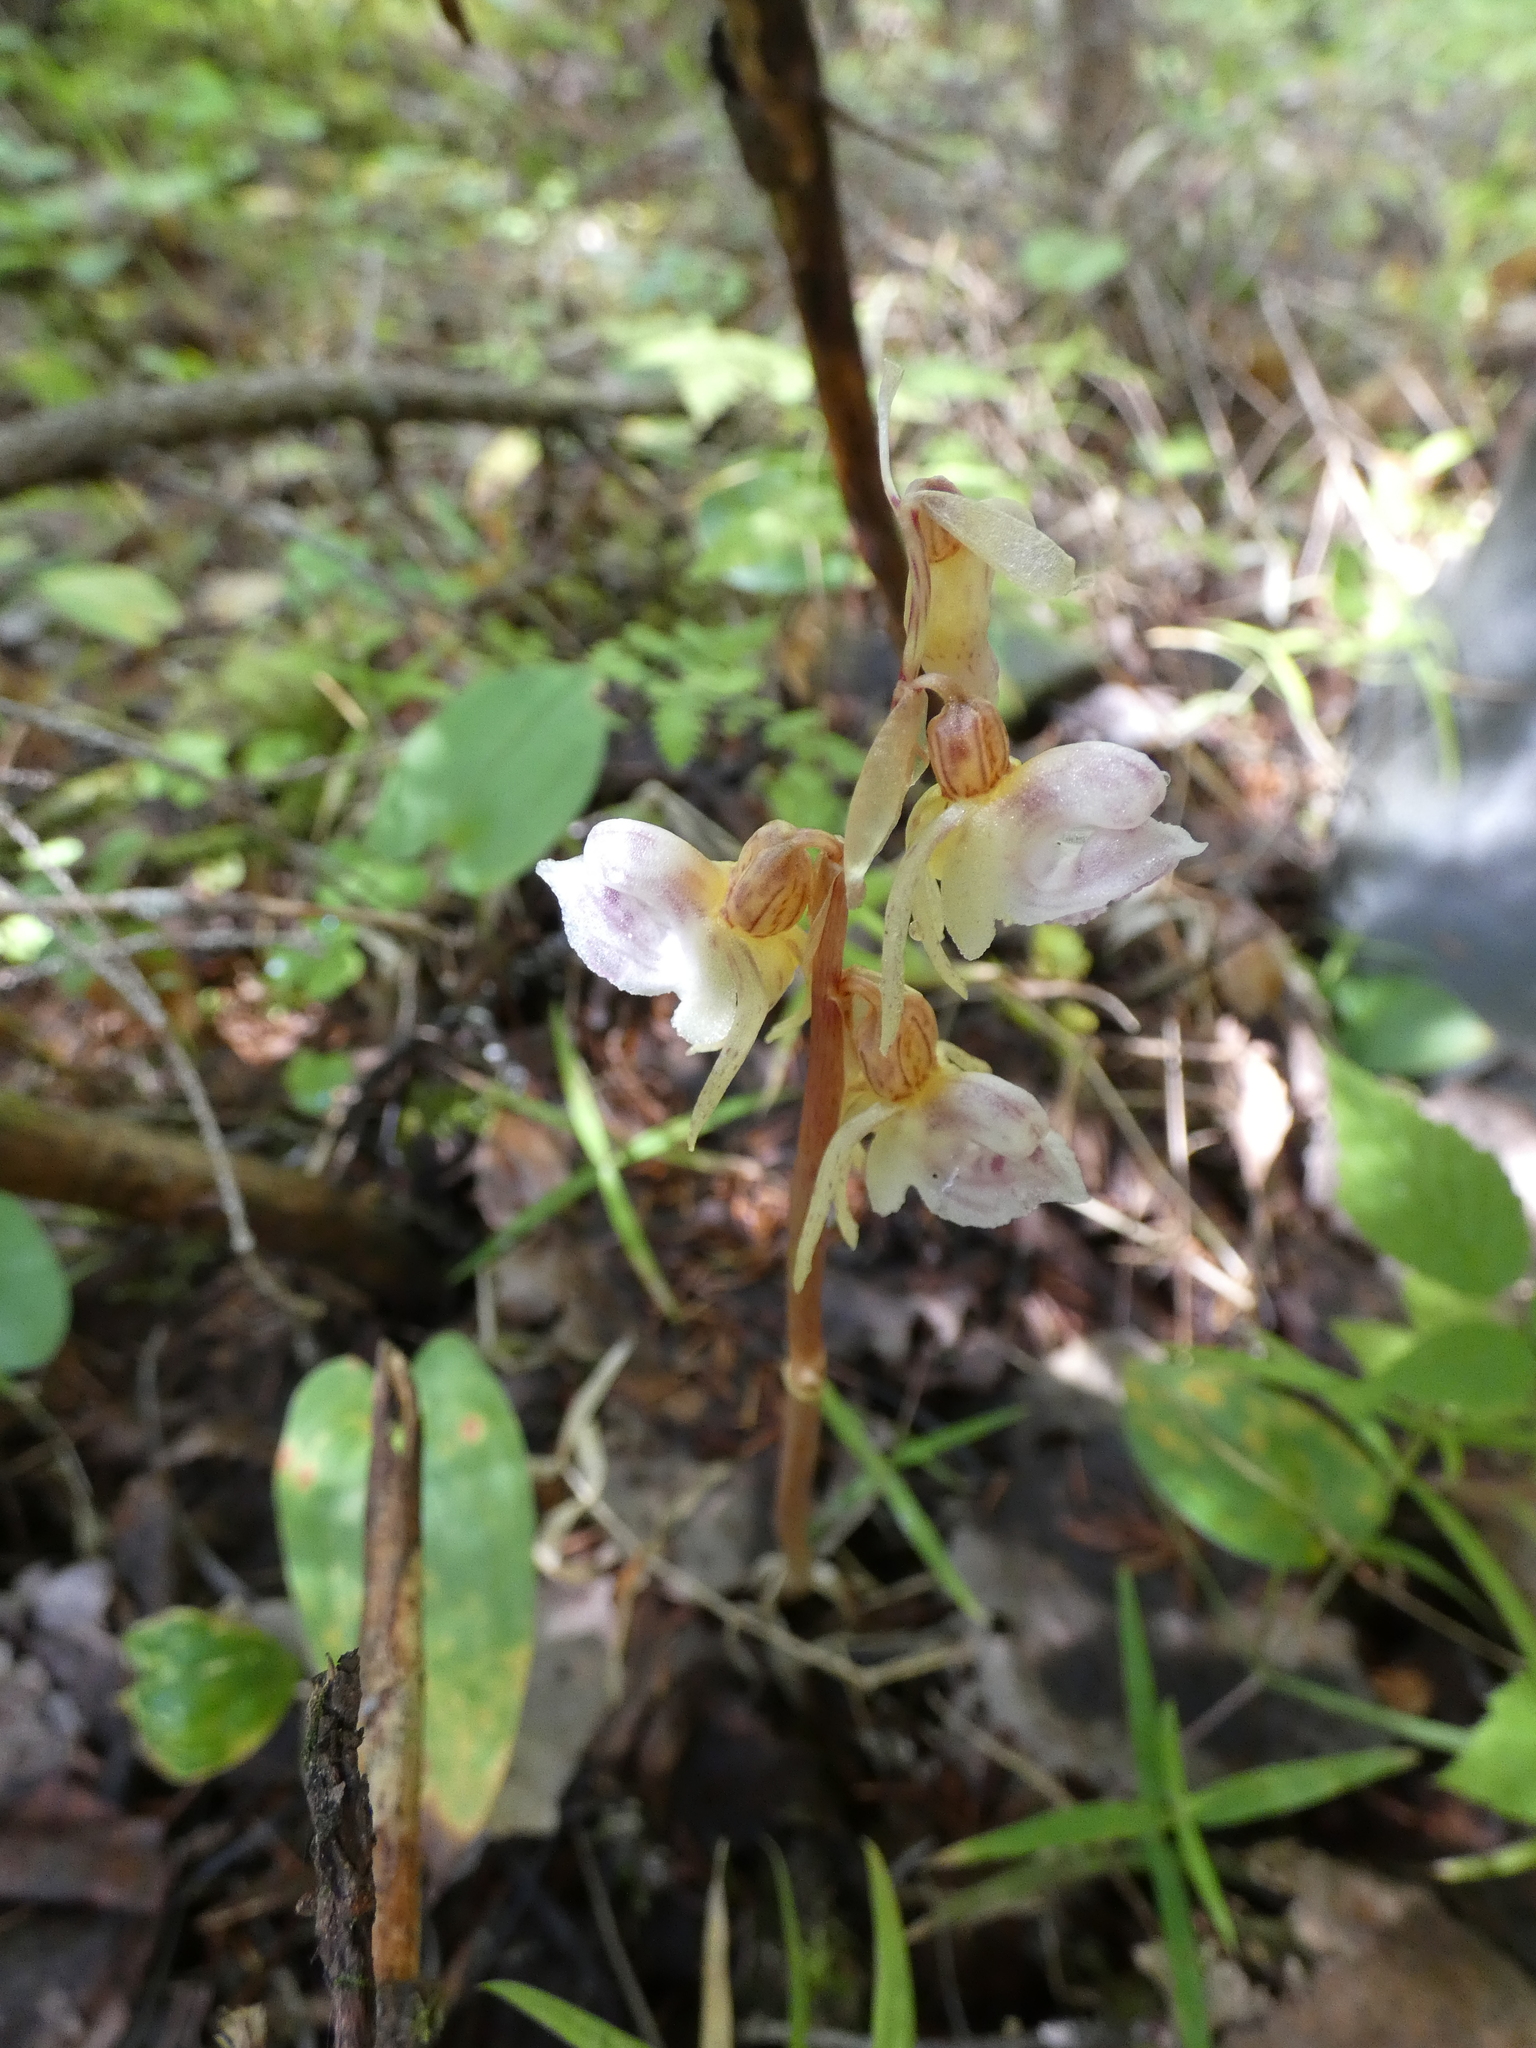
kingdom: Plantae
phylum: Tracheophyta
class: Liliopsida
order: Asparagales
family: Orchidaceae
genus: Epipogium
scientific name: Epipogium aphyllum
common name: Ghost orchid
